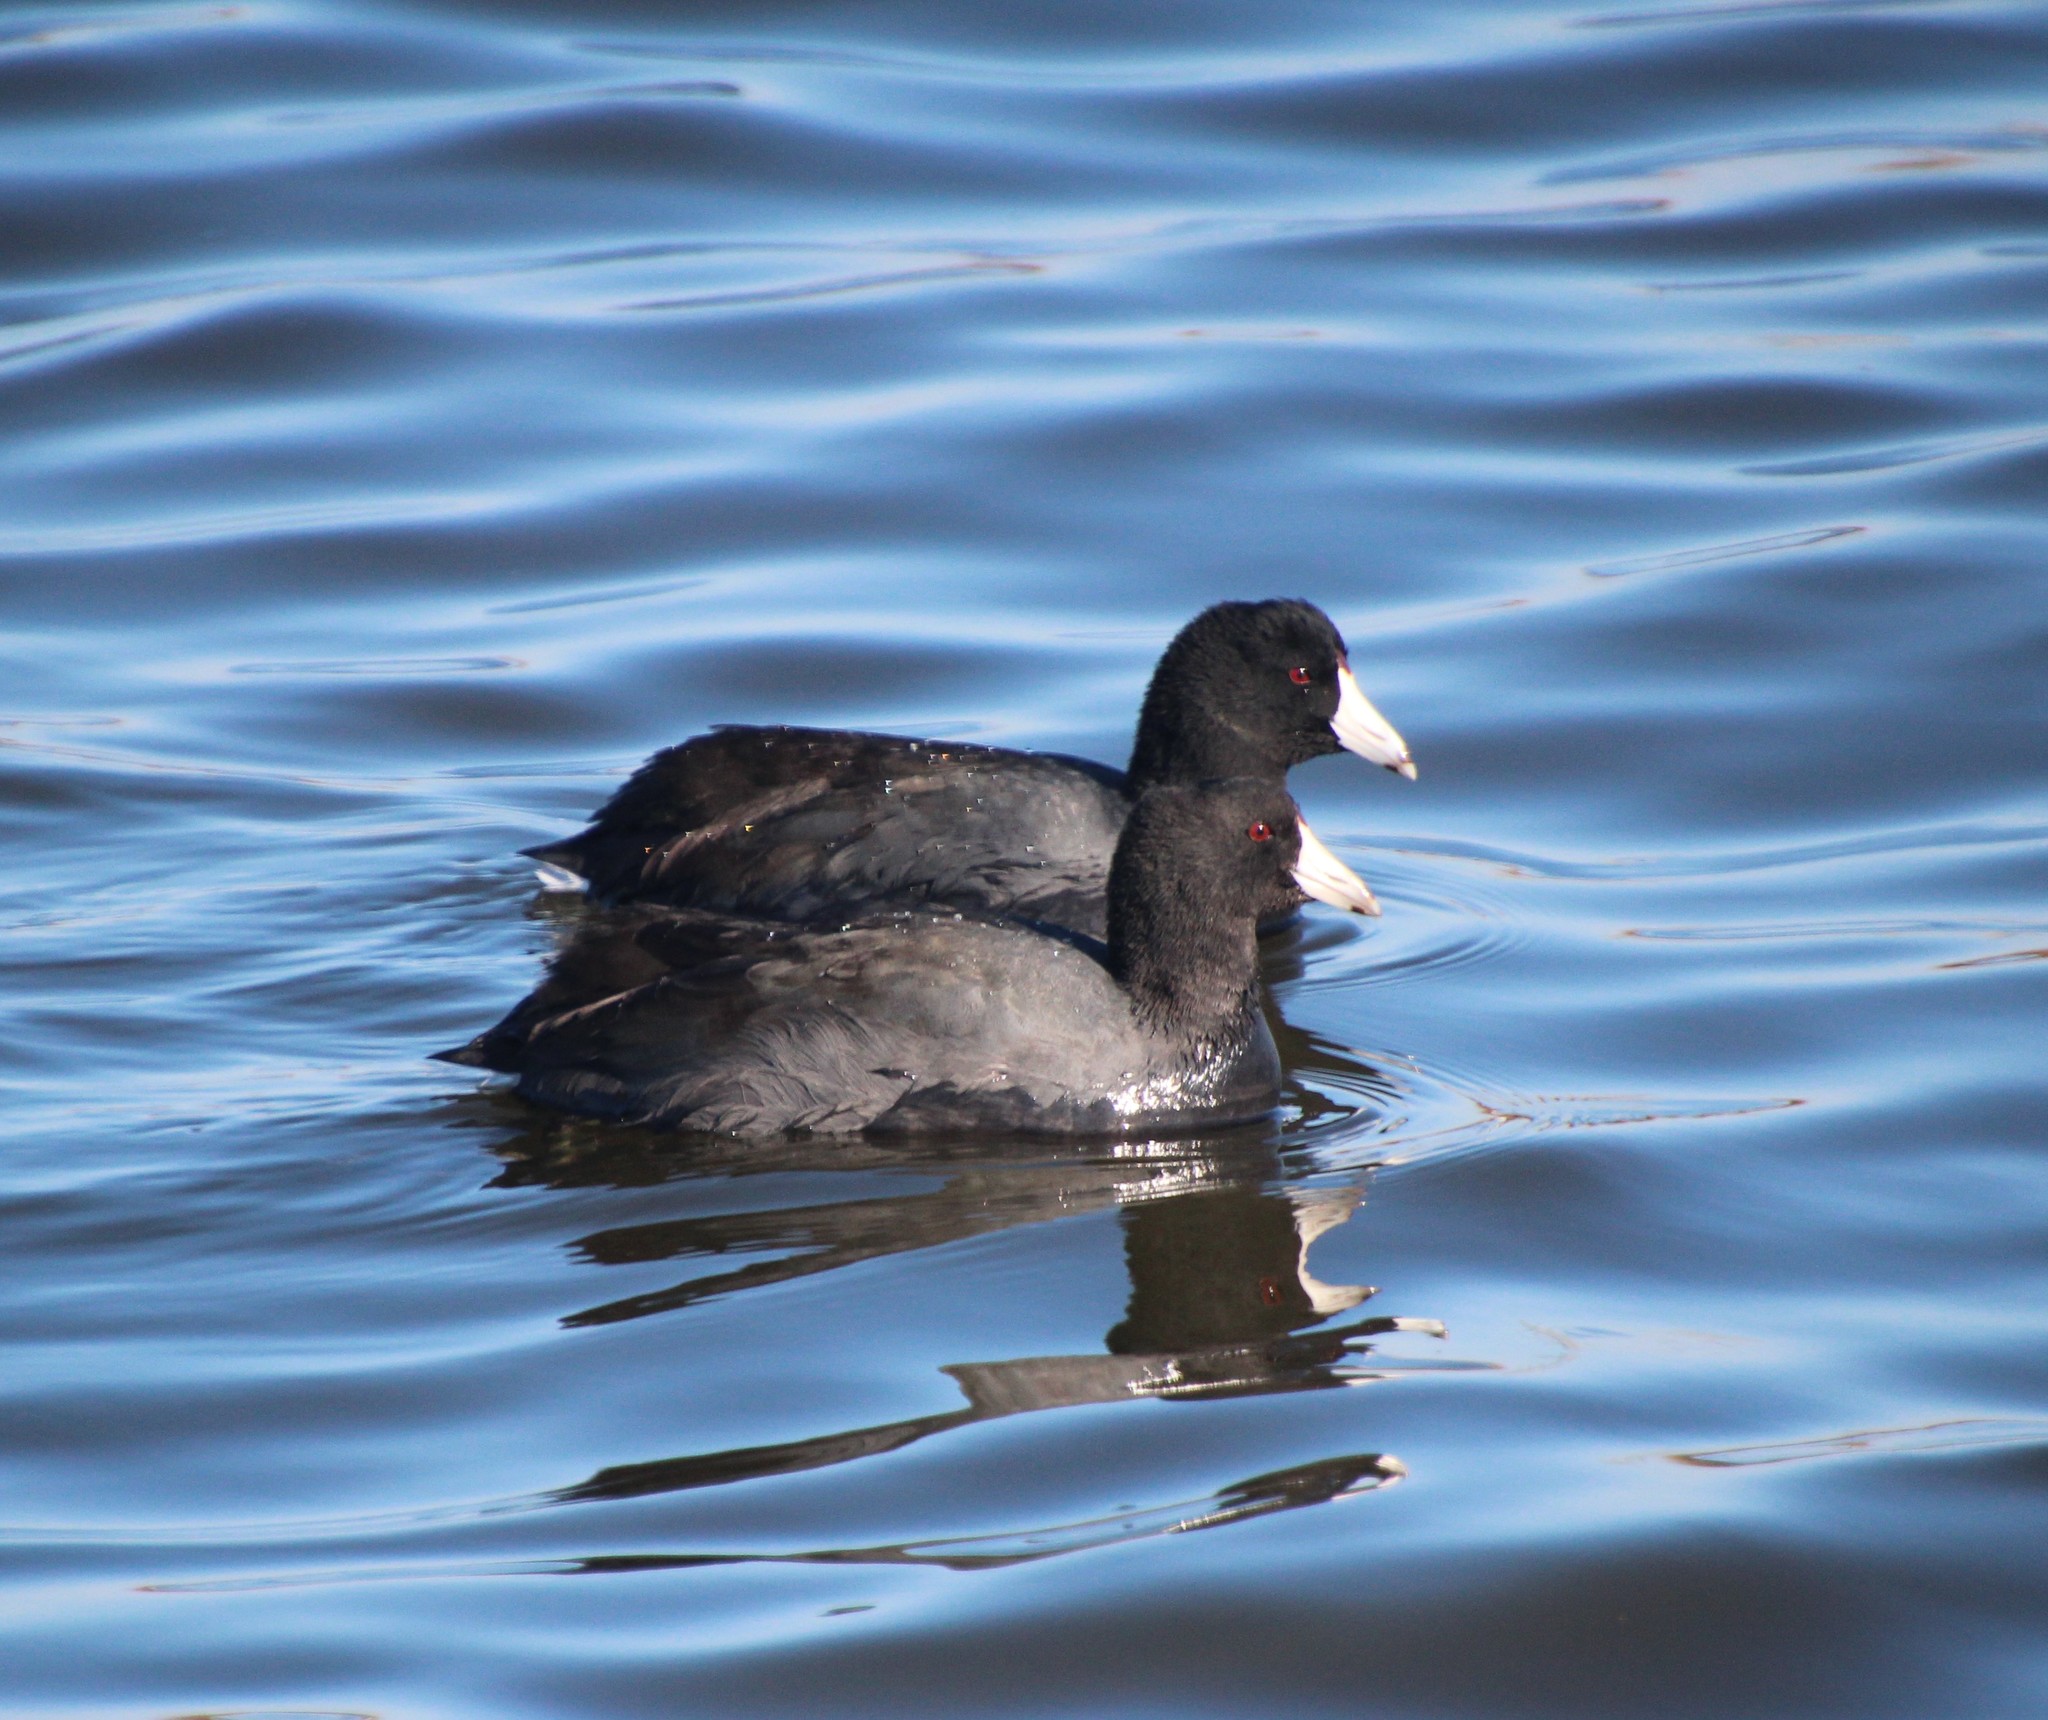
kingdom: Animalia
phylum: Chordata
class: Aves
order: Gruiformes
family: Rallidae
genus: Fulica
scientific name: Fulica americana
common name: American coot
